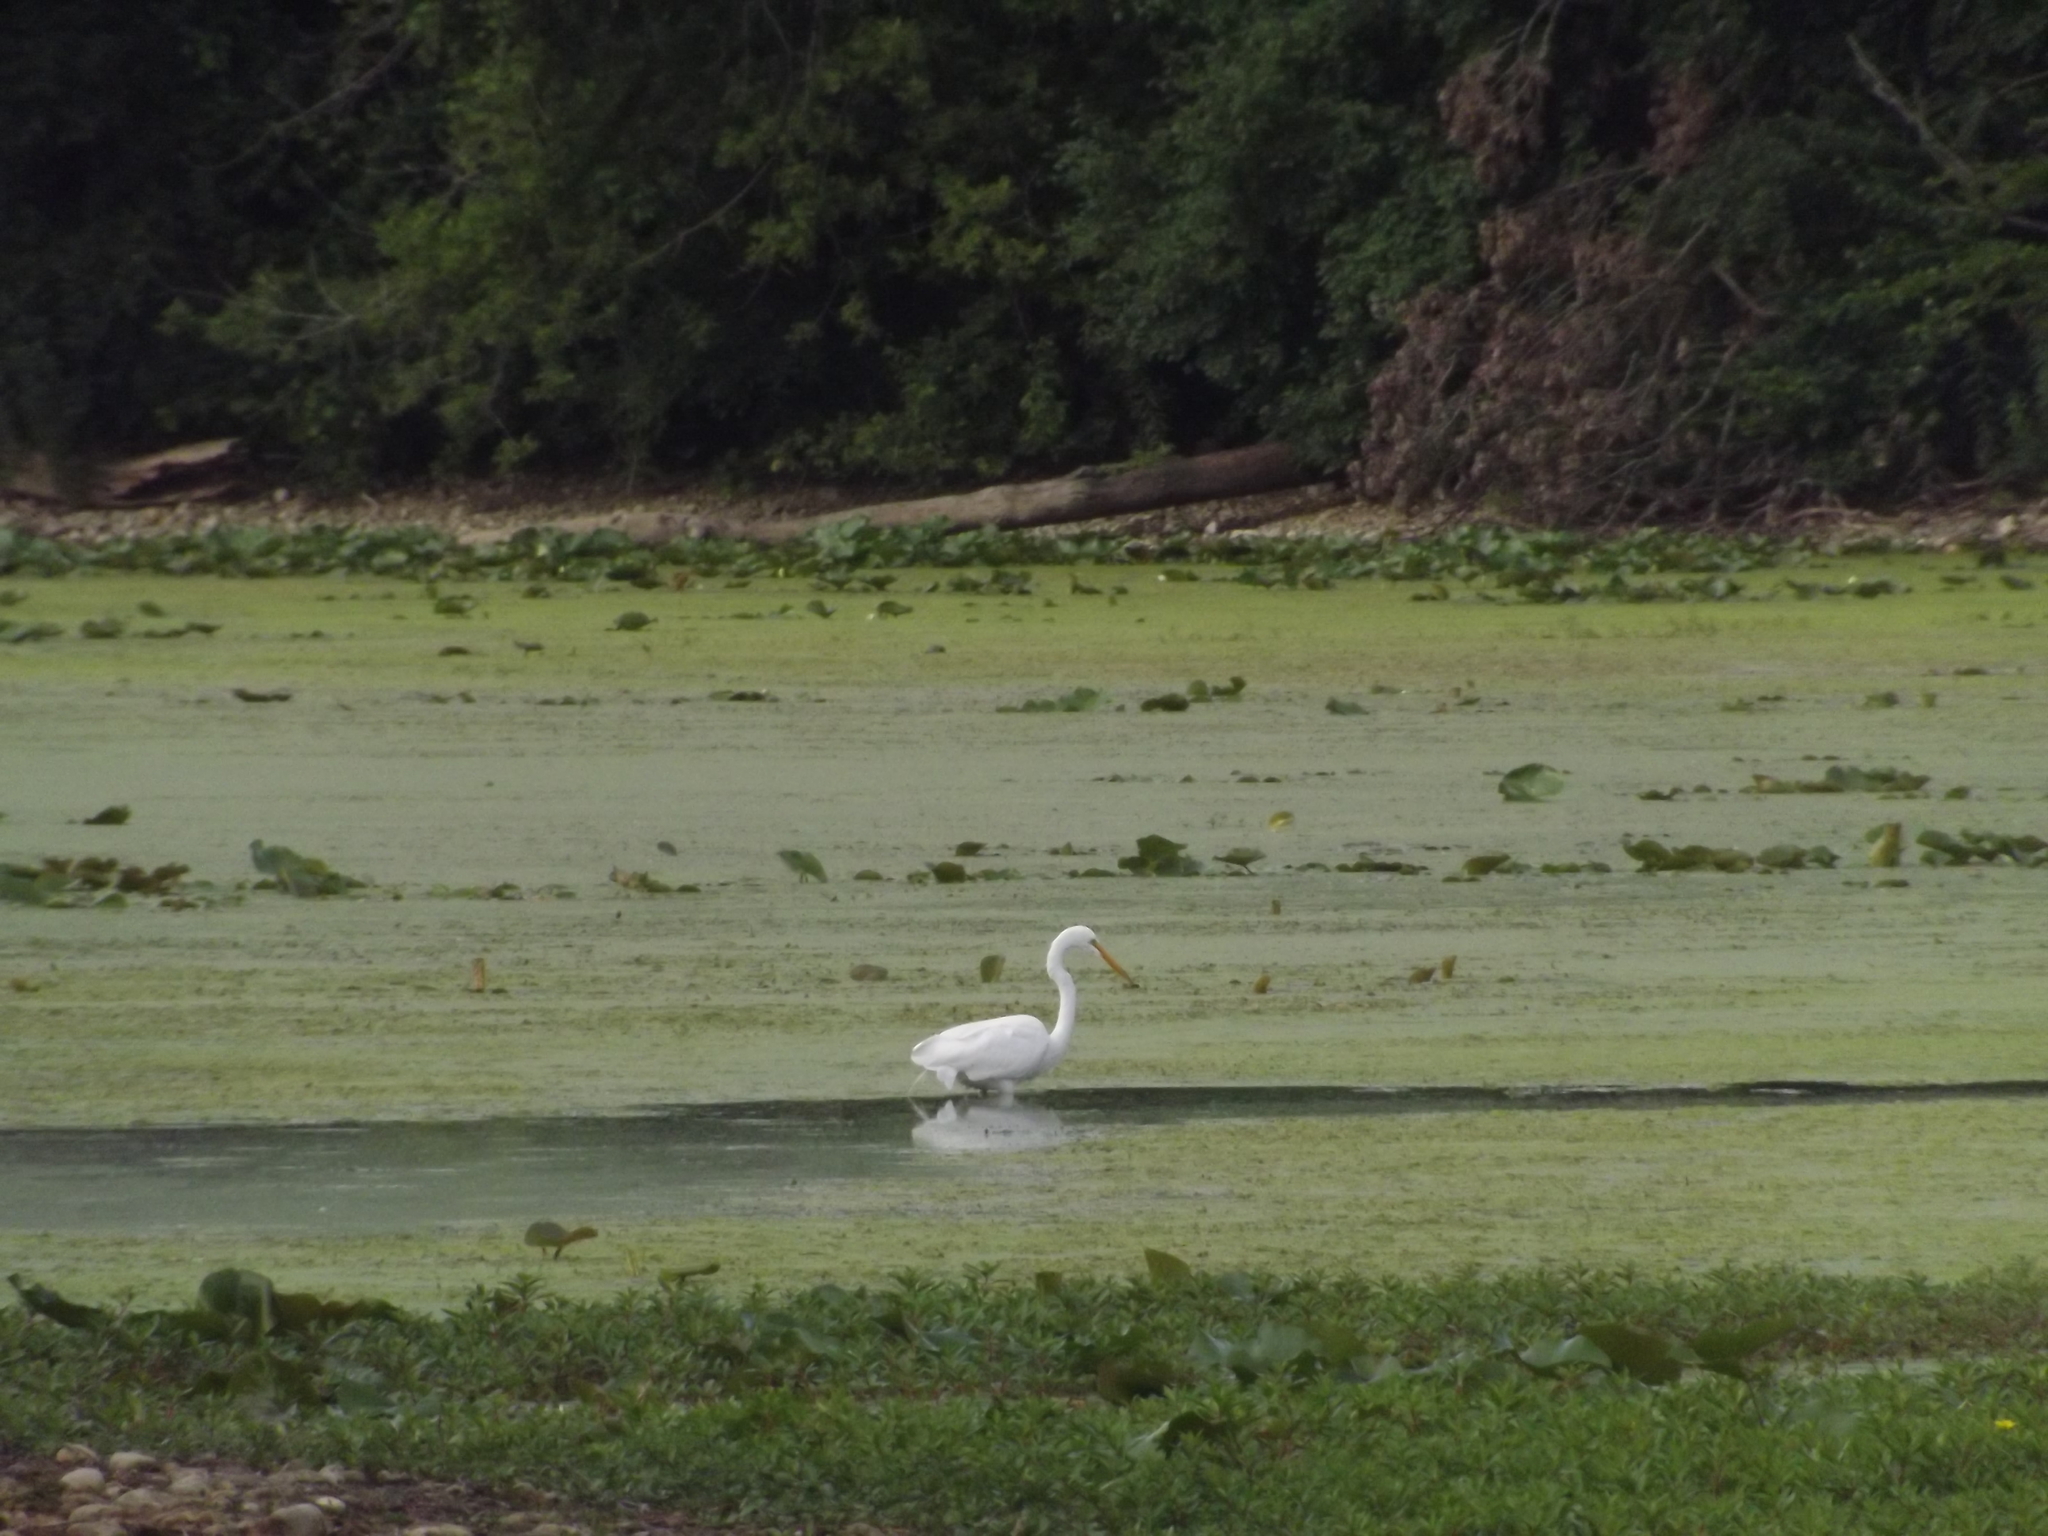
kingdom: Animalia
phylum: Chordata
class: Aves
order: Pelecaniformes
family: Ardeidae
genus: Ardea
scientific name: Ardea alba
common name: Great egret
